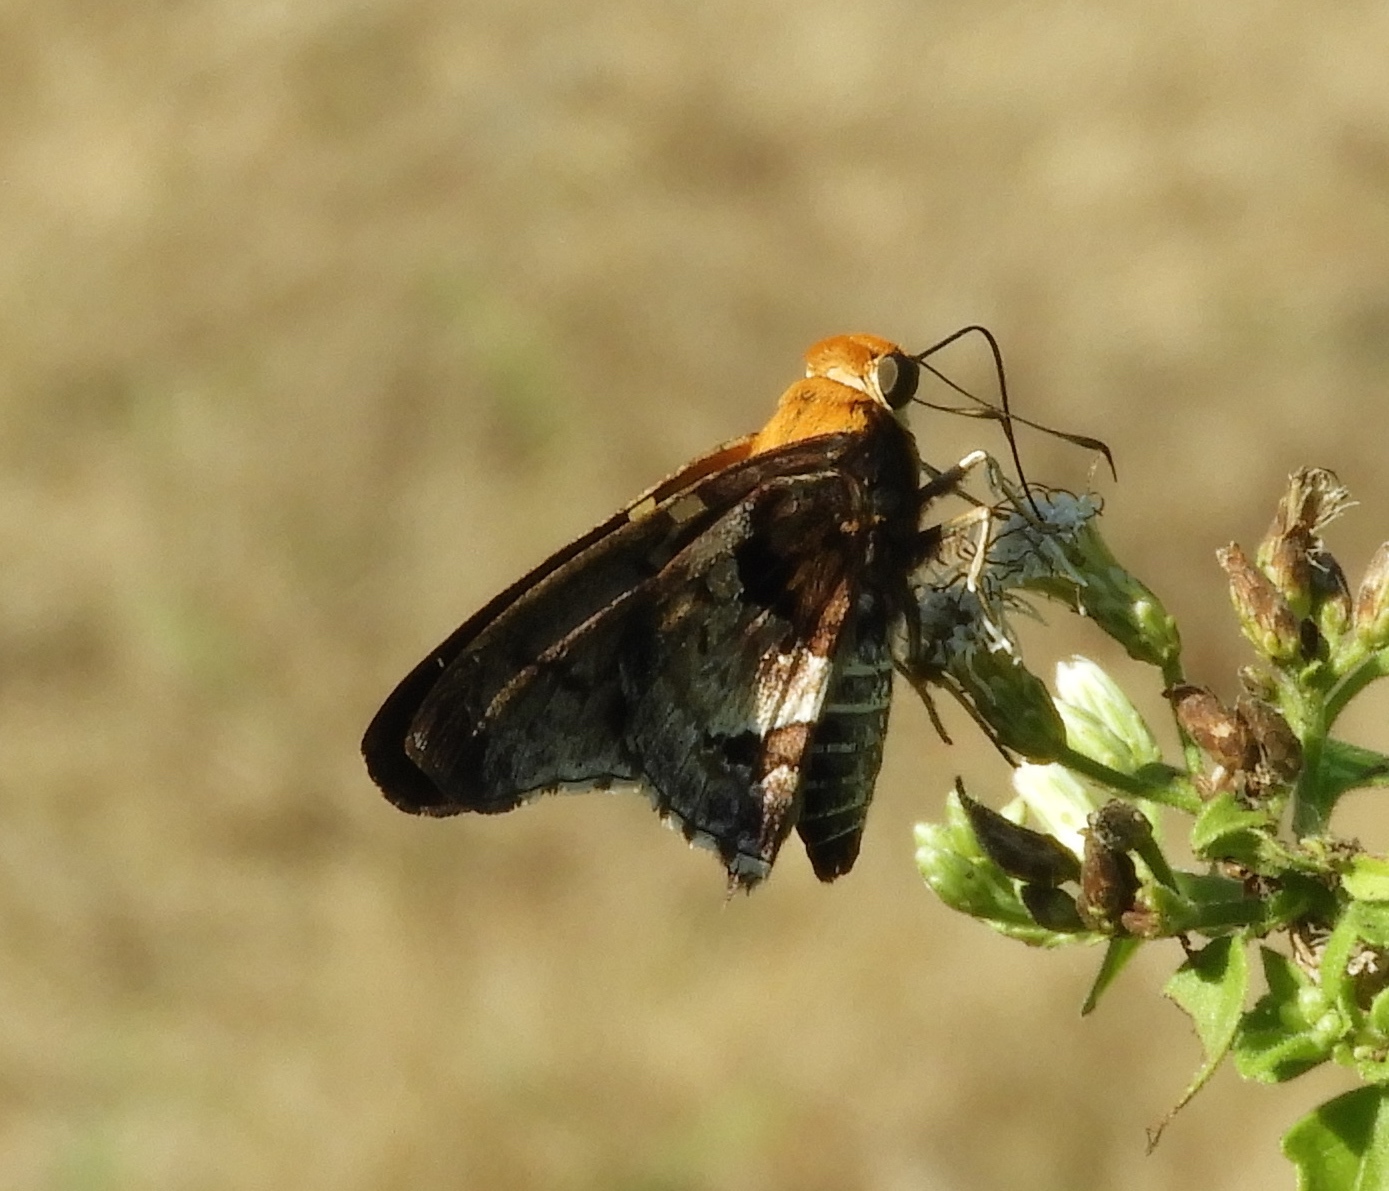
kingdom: Animalia
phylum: Arthropoda
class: Insecta
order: Lepidoptera
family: Hesperiidae
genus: Proteides
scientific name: Proteides mercurius
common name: Mercurial skipper
